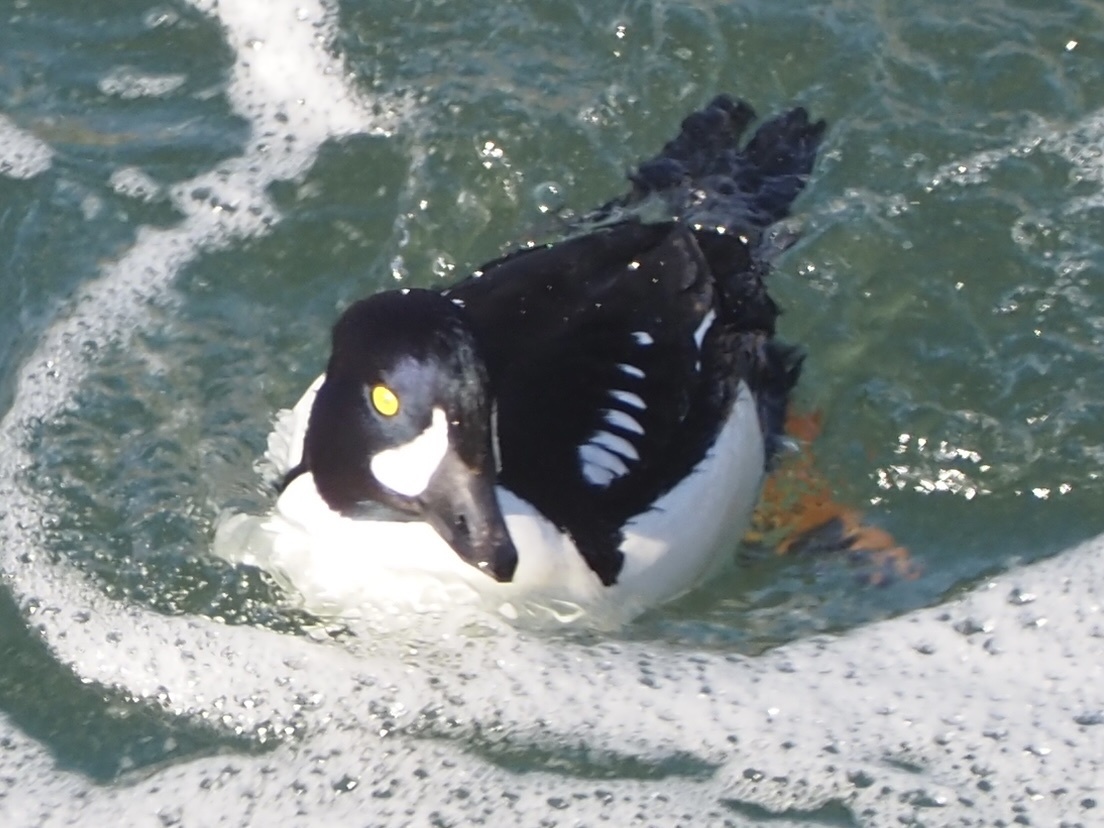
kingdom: Animalia
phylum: Chordata
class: Aves
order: Anseriformes
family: Anatidae
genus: Bucephala
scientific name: Bucephala islandica
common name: Barrow's goldeneye
